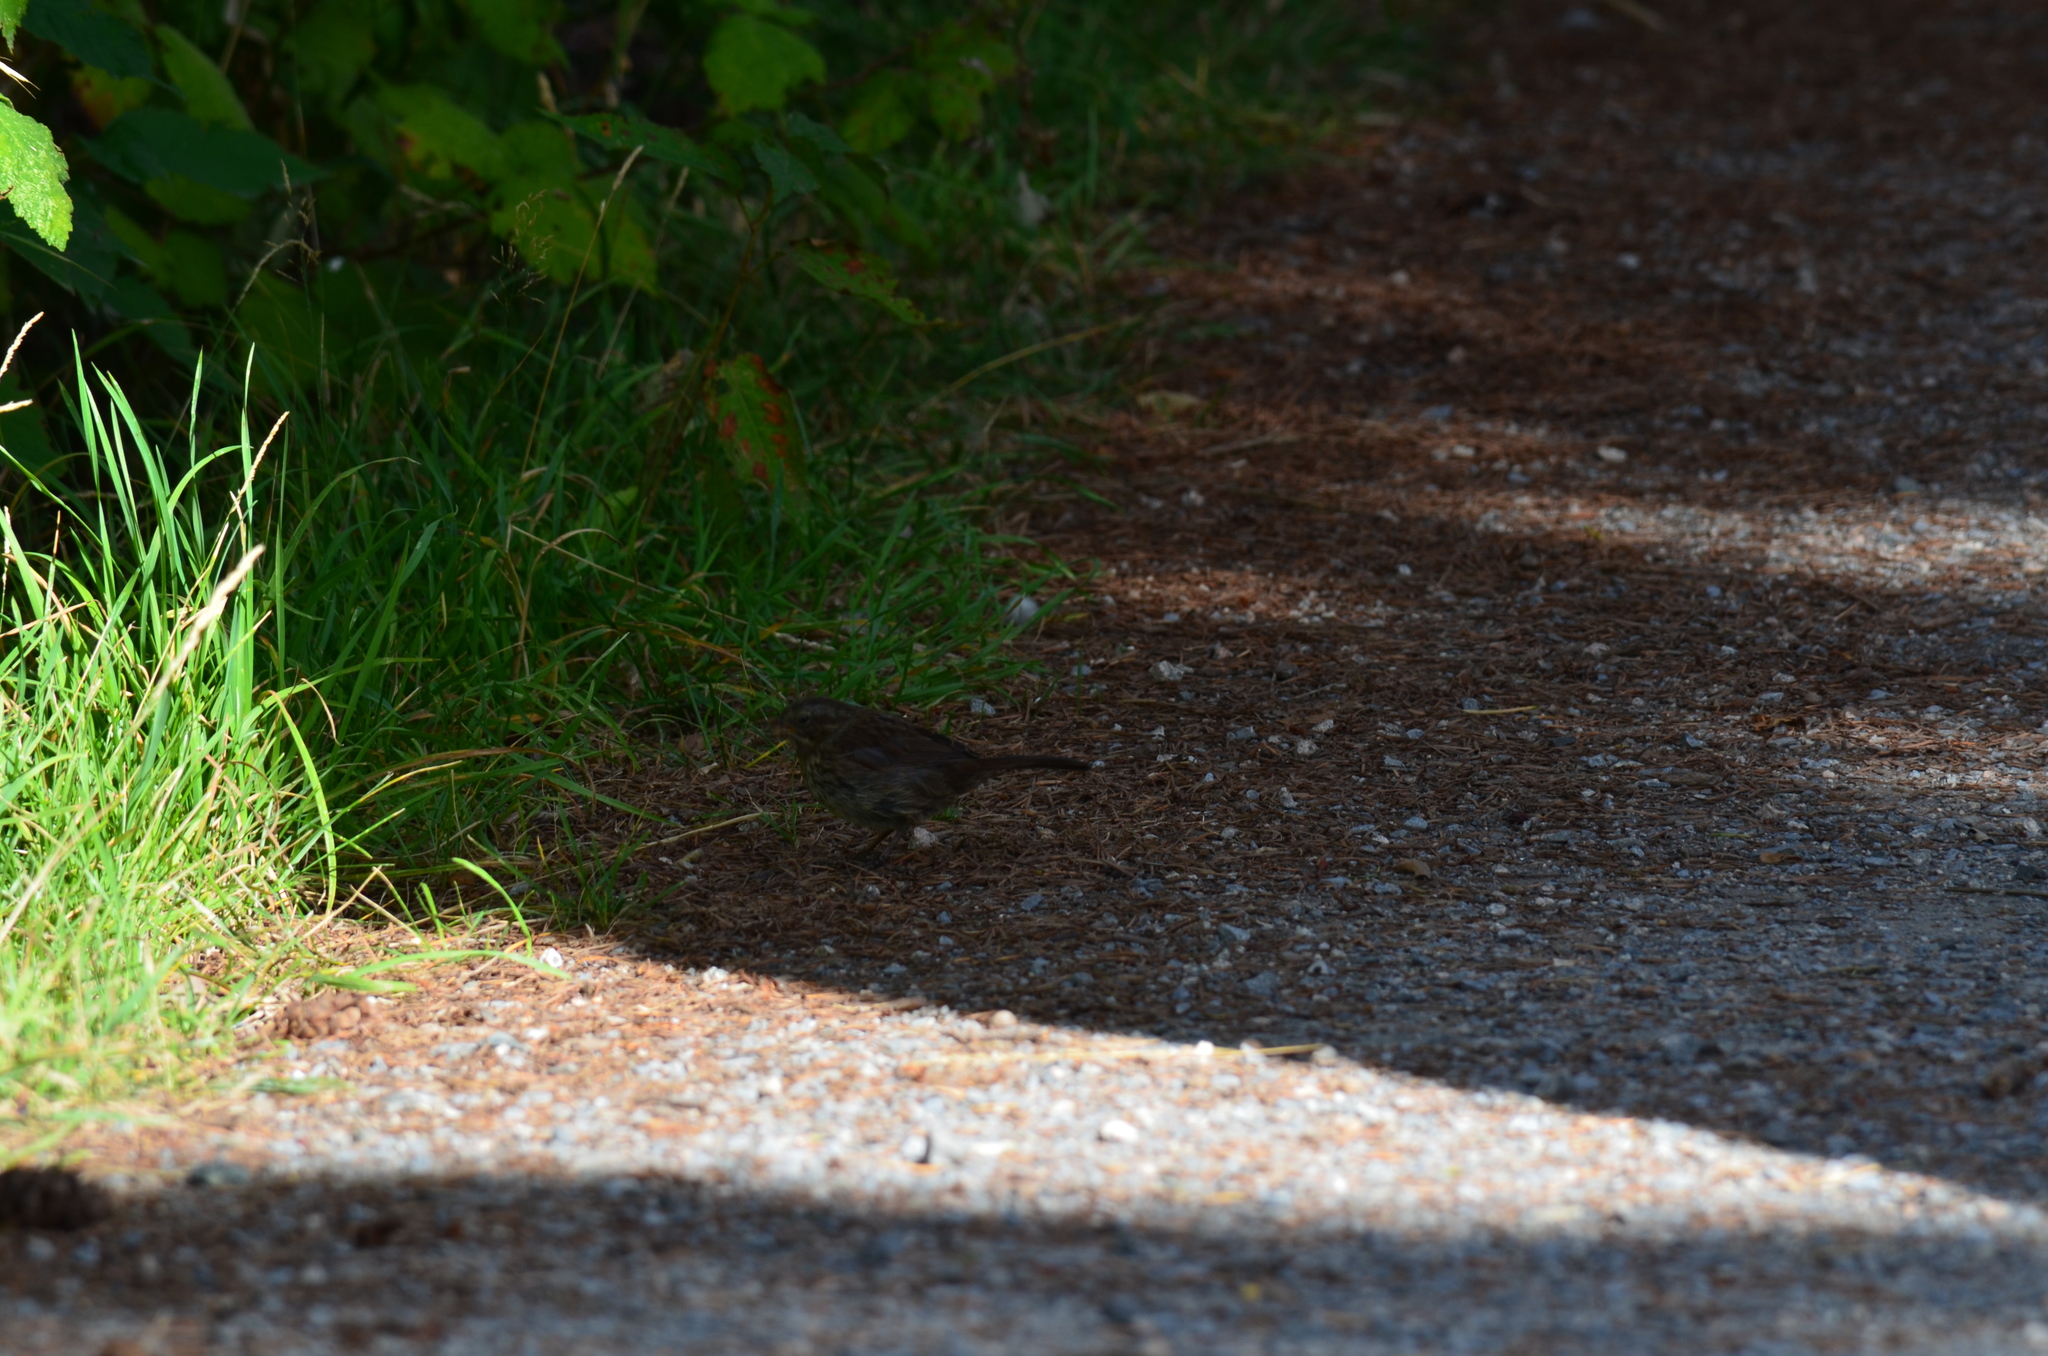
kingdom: Animalia
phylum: Chordata
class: Aves
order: Passeriformes
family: Passerellidae
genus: Melospiza
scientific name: Melospiza melodia
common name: Song sparrow
